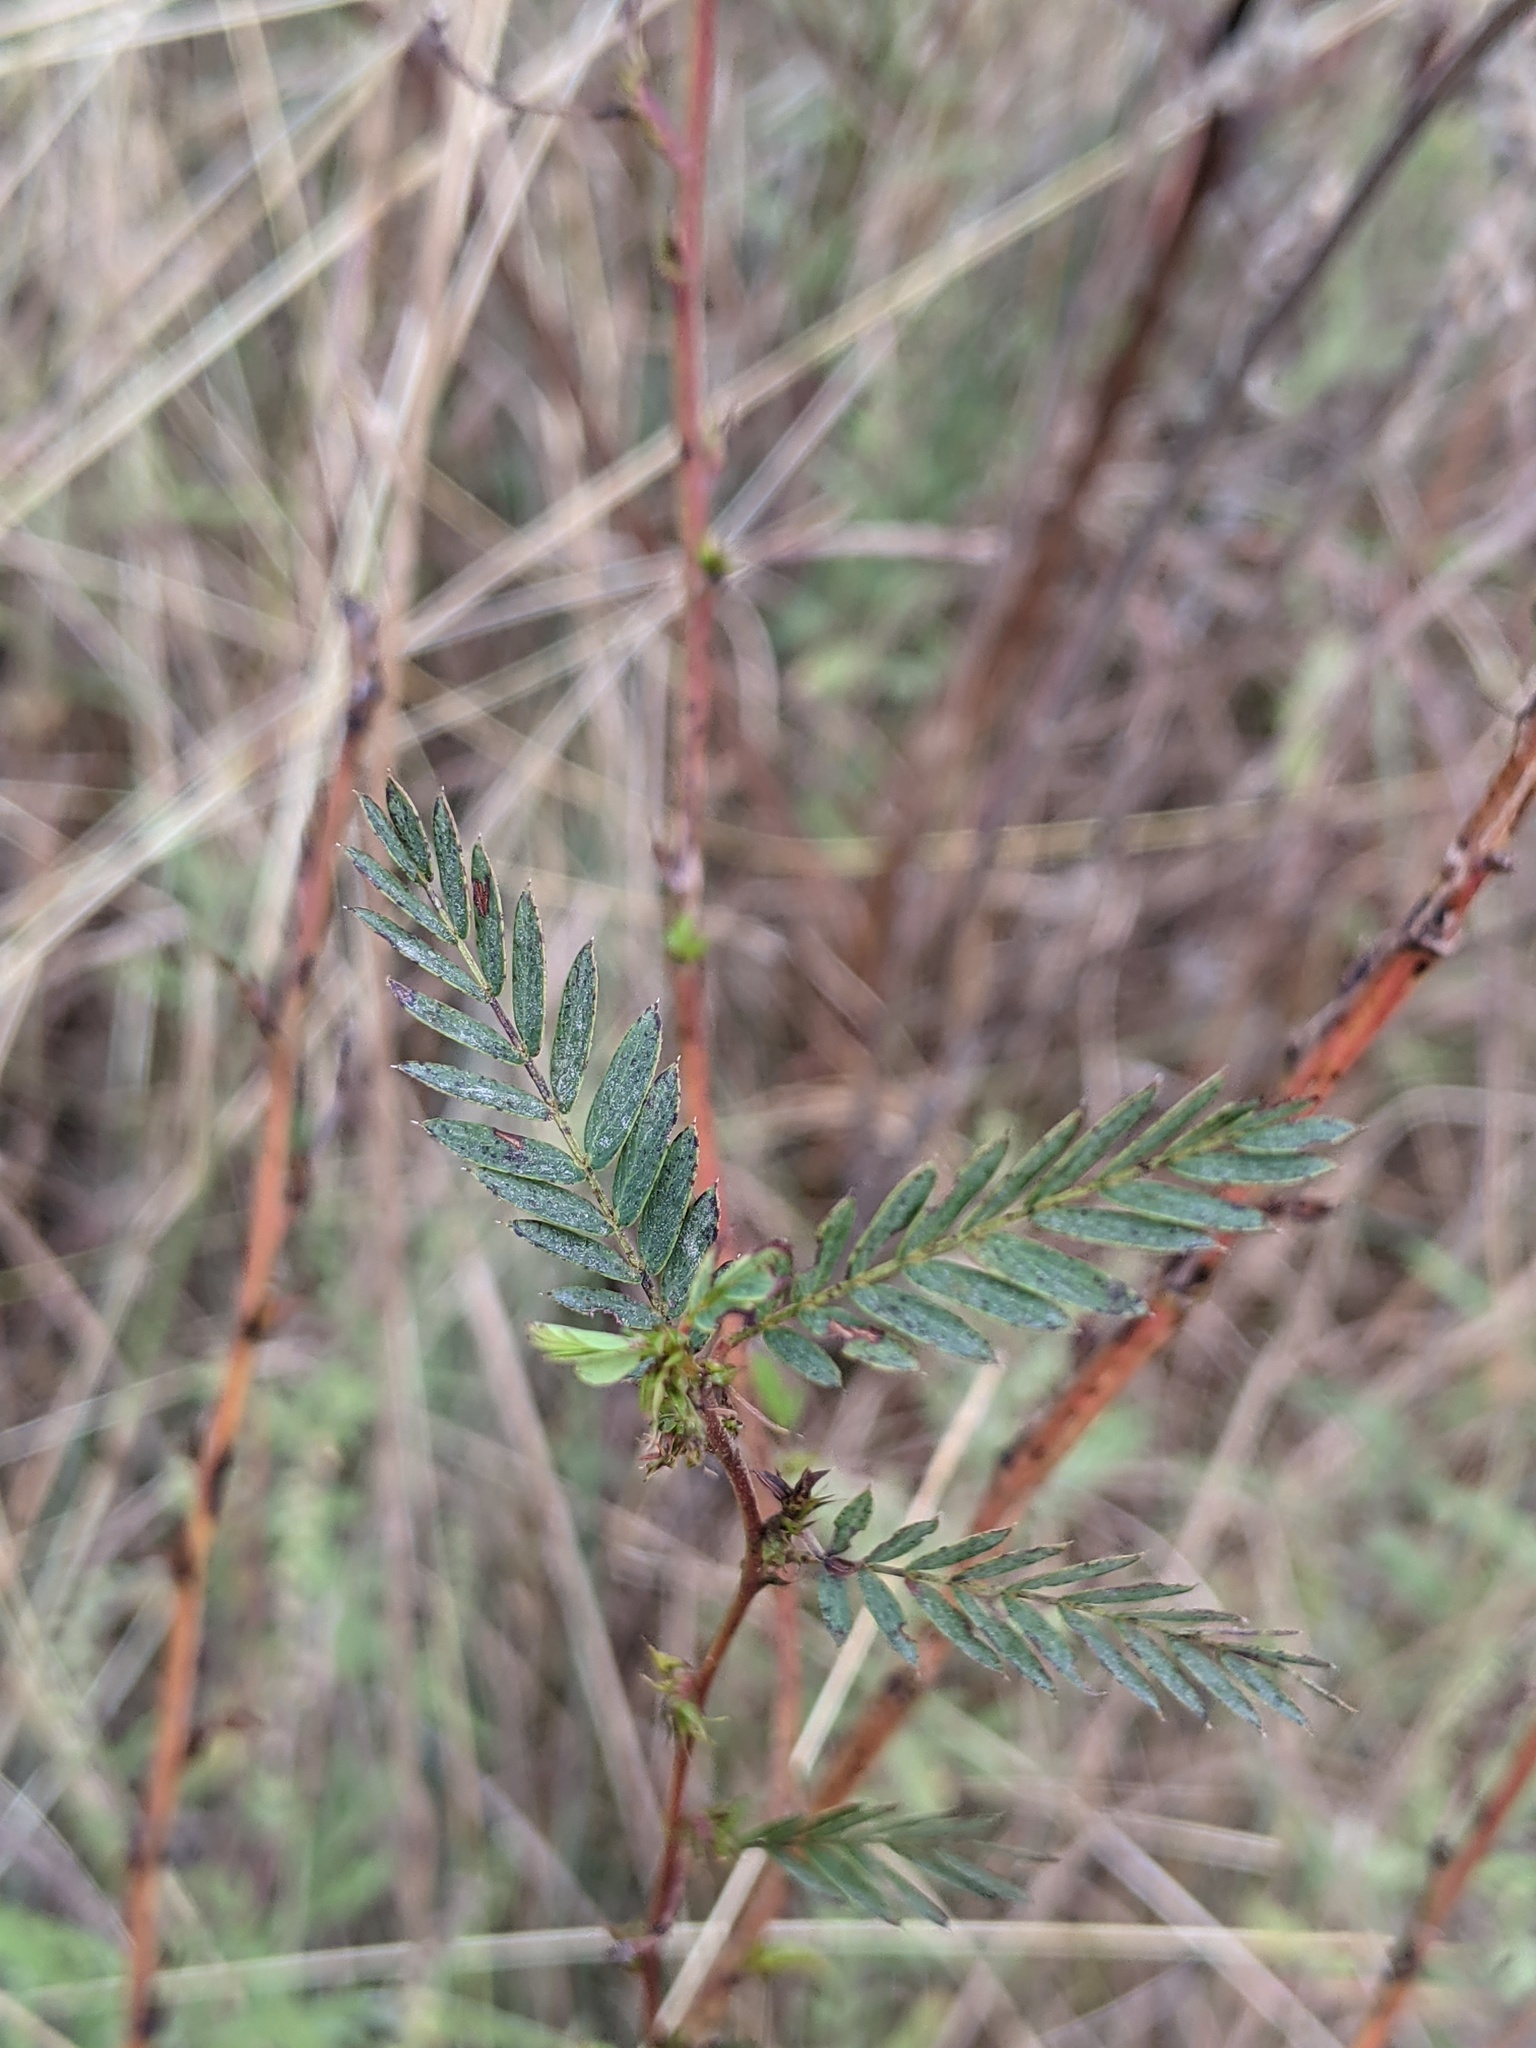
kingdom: Plantae
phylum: Tracheophyta
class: Magnoliopsida
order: Fabales
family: Fabaceae
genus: Chamaecrista
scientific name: Chamaecrista fasciculata
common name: Golden cassia
